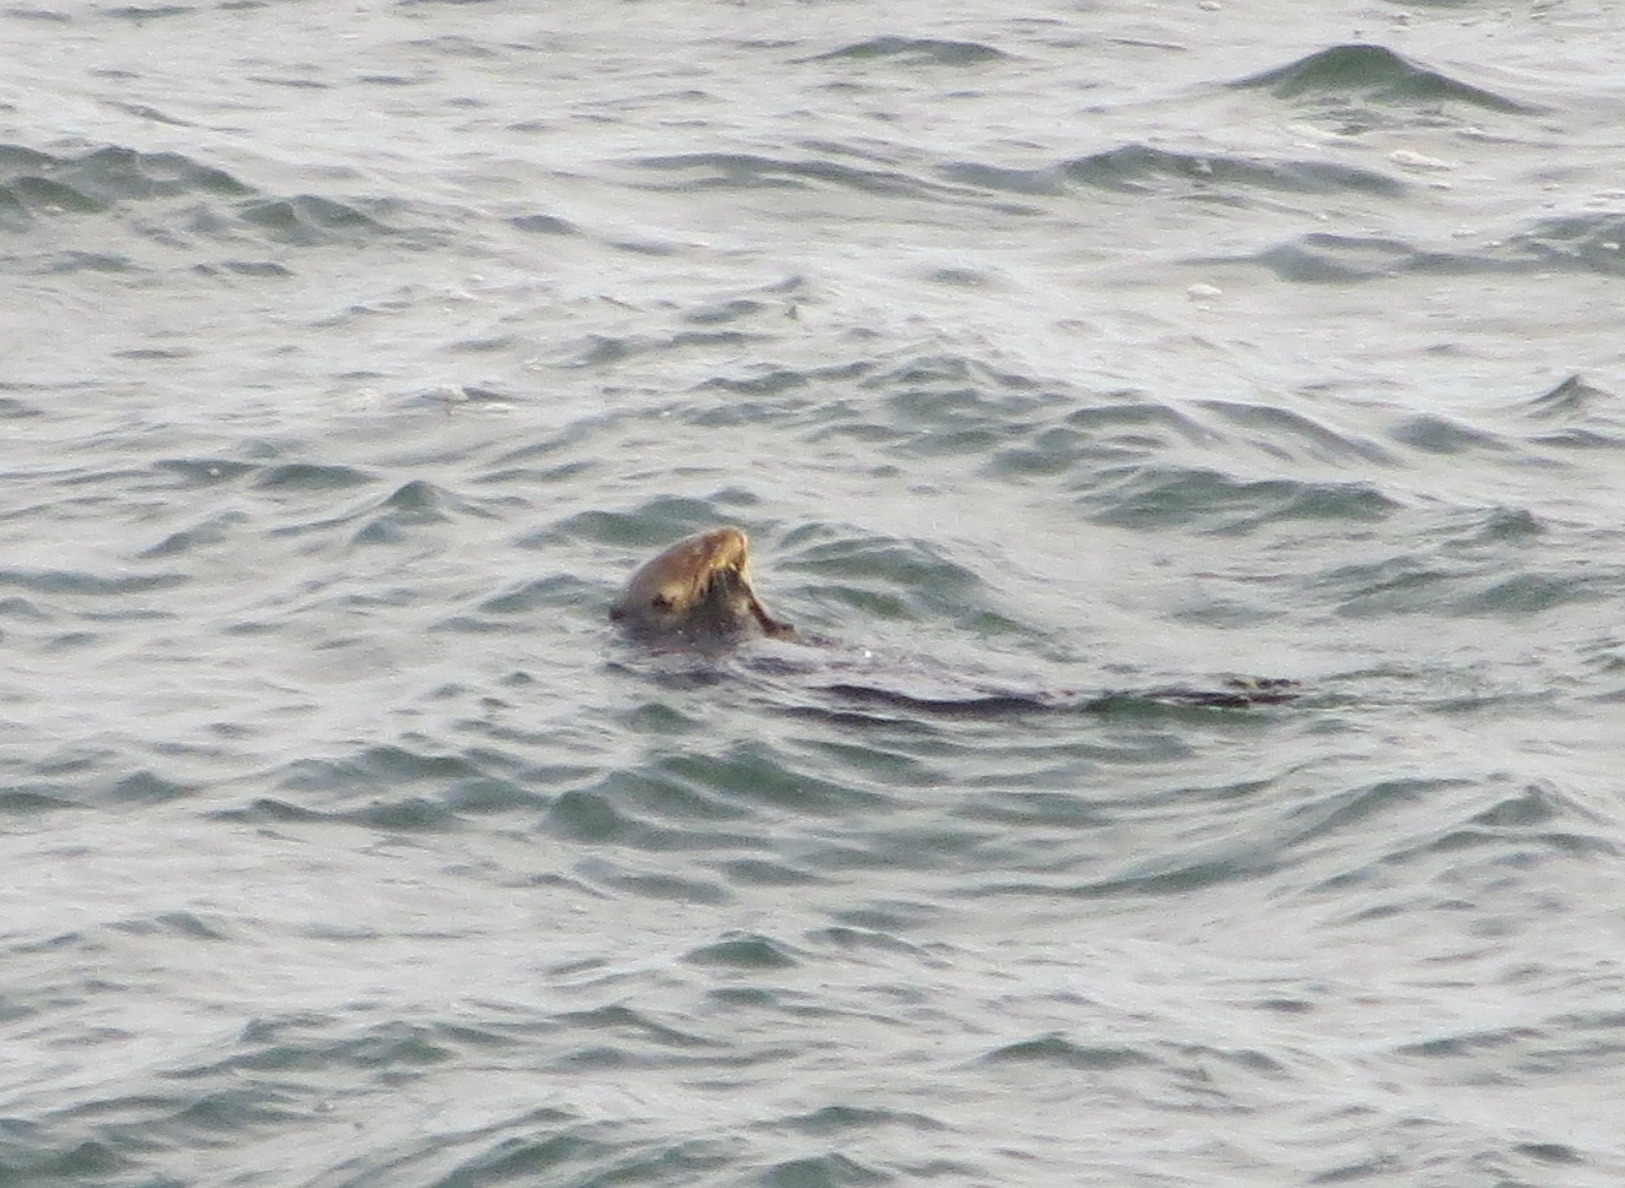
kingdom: Animalia
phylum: Chordata
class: Mammalia
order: Carnivora
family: Mustelidae
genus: Enhydra
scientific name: Enhydra lutris
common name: Sea otter
